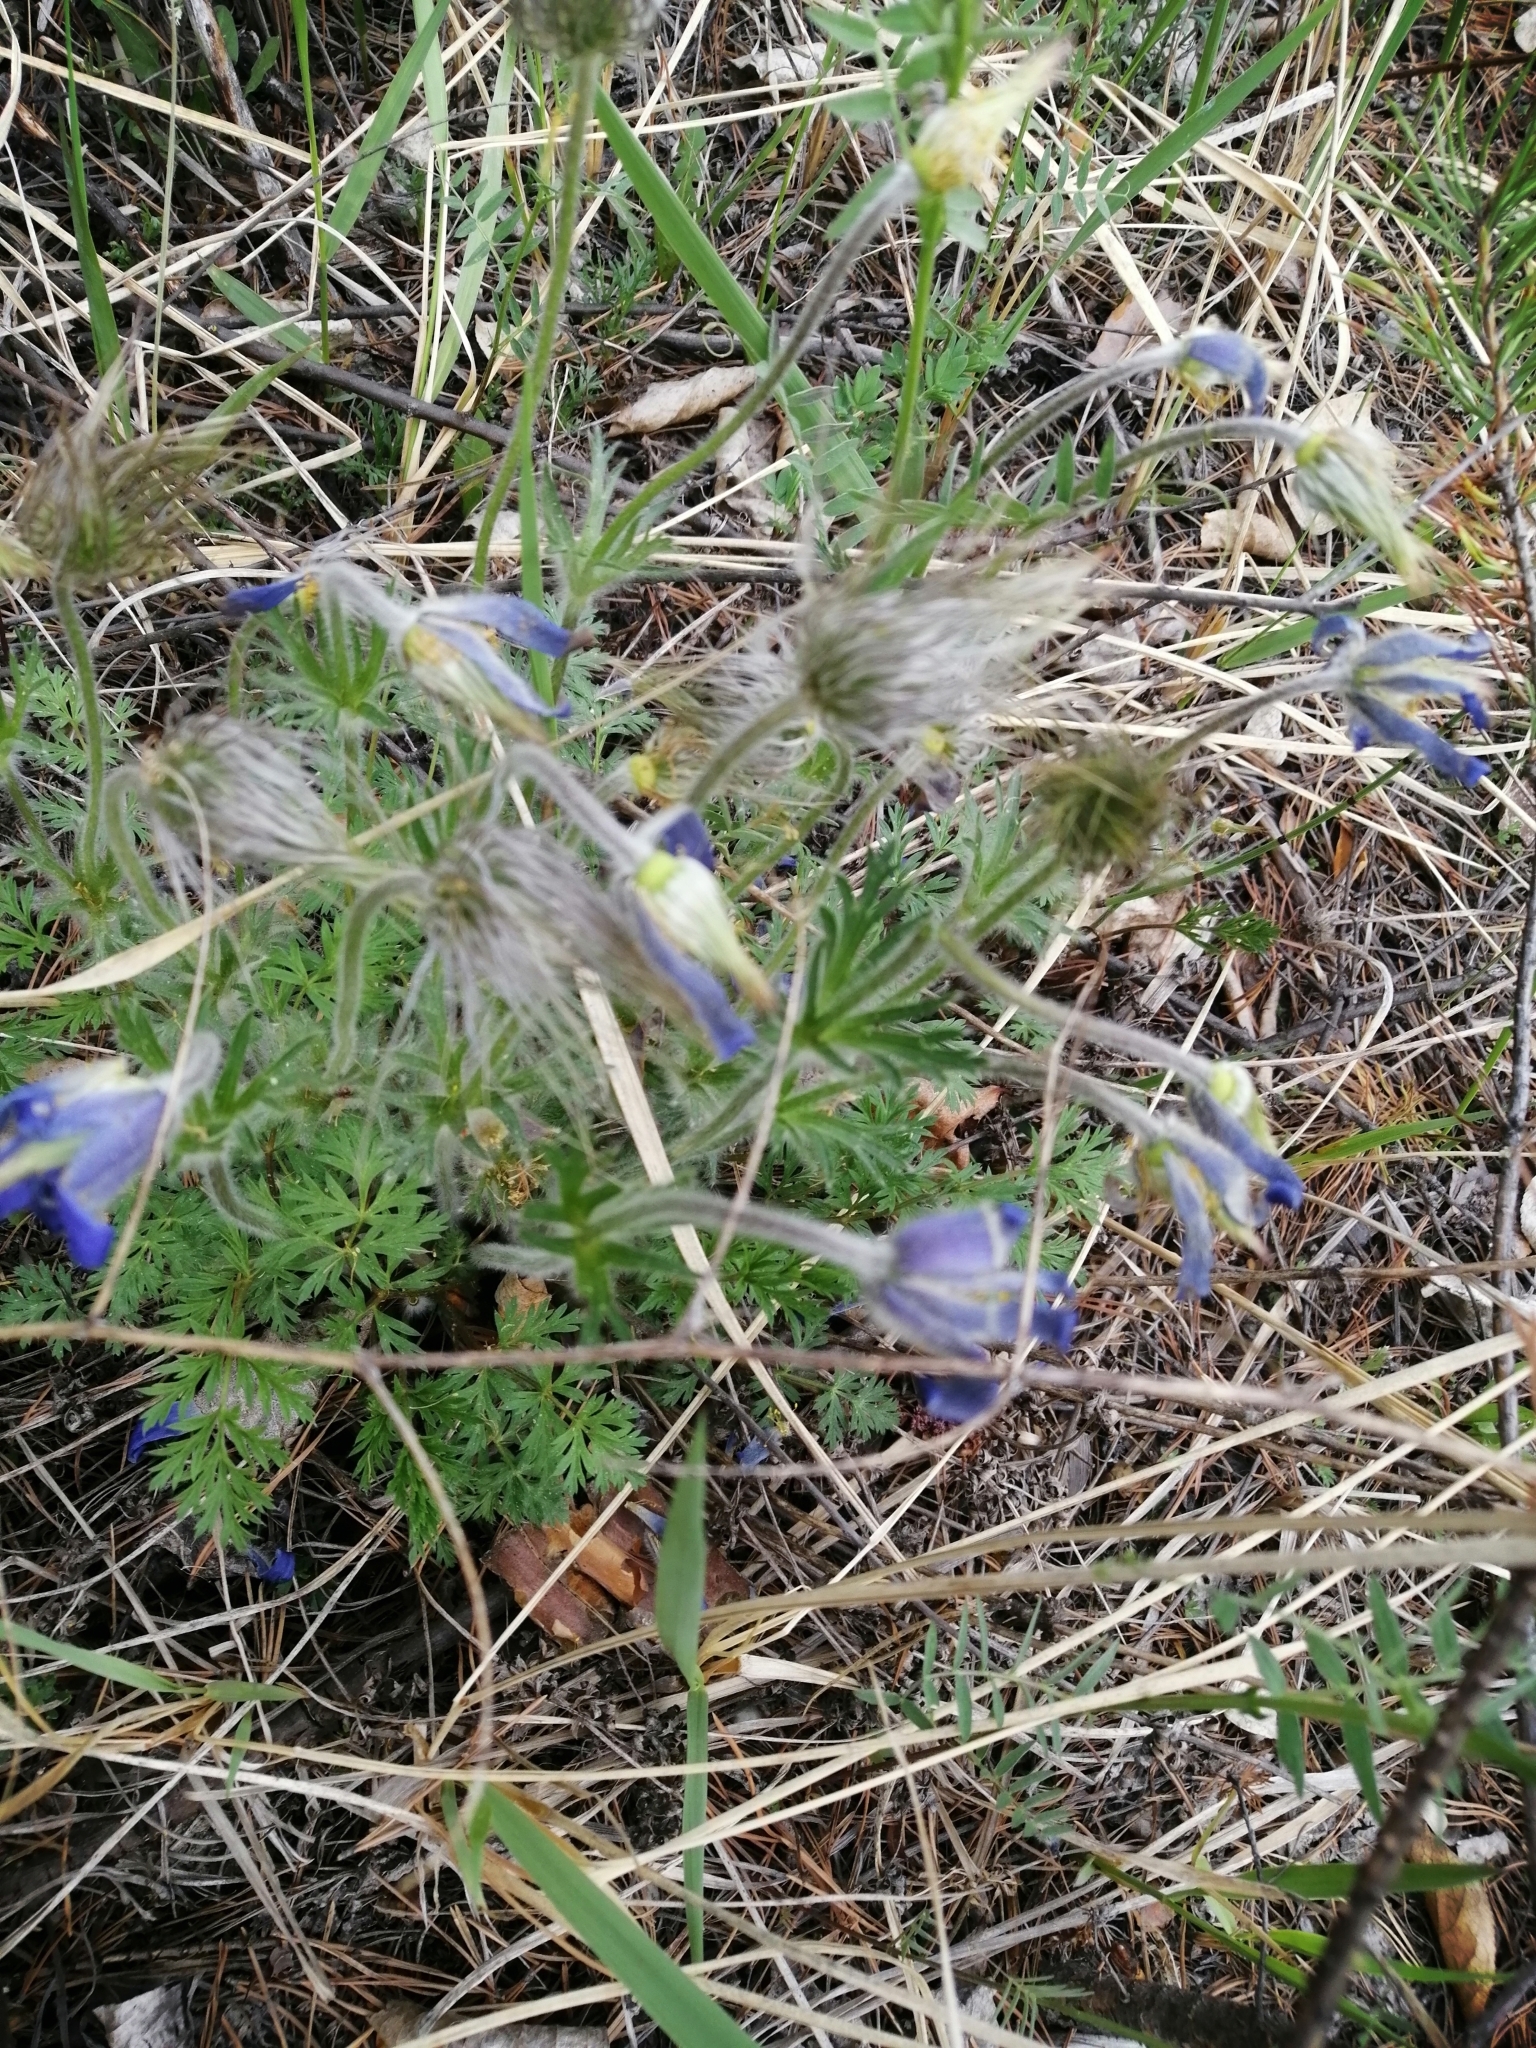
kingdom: Plantae
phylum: Tracheophyta
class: Magnoliopsida
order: Ranunculales
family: Ranunculaceae
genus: Pulsatilla
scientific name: Pulsatilla ambigua
